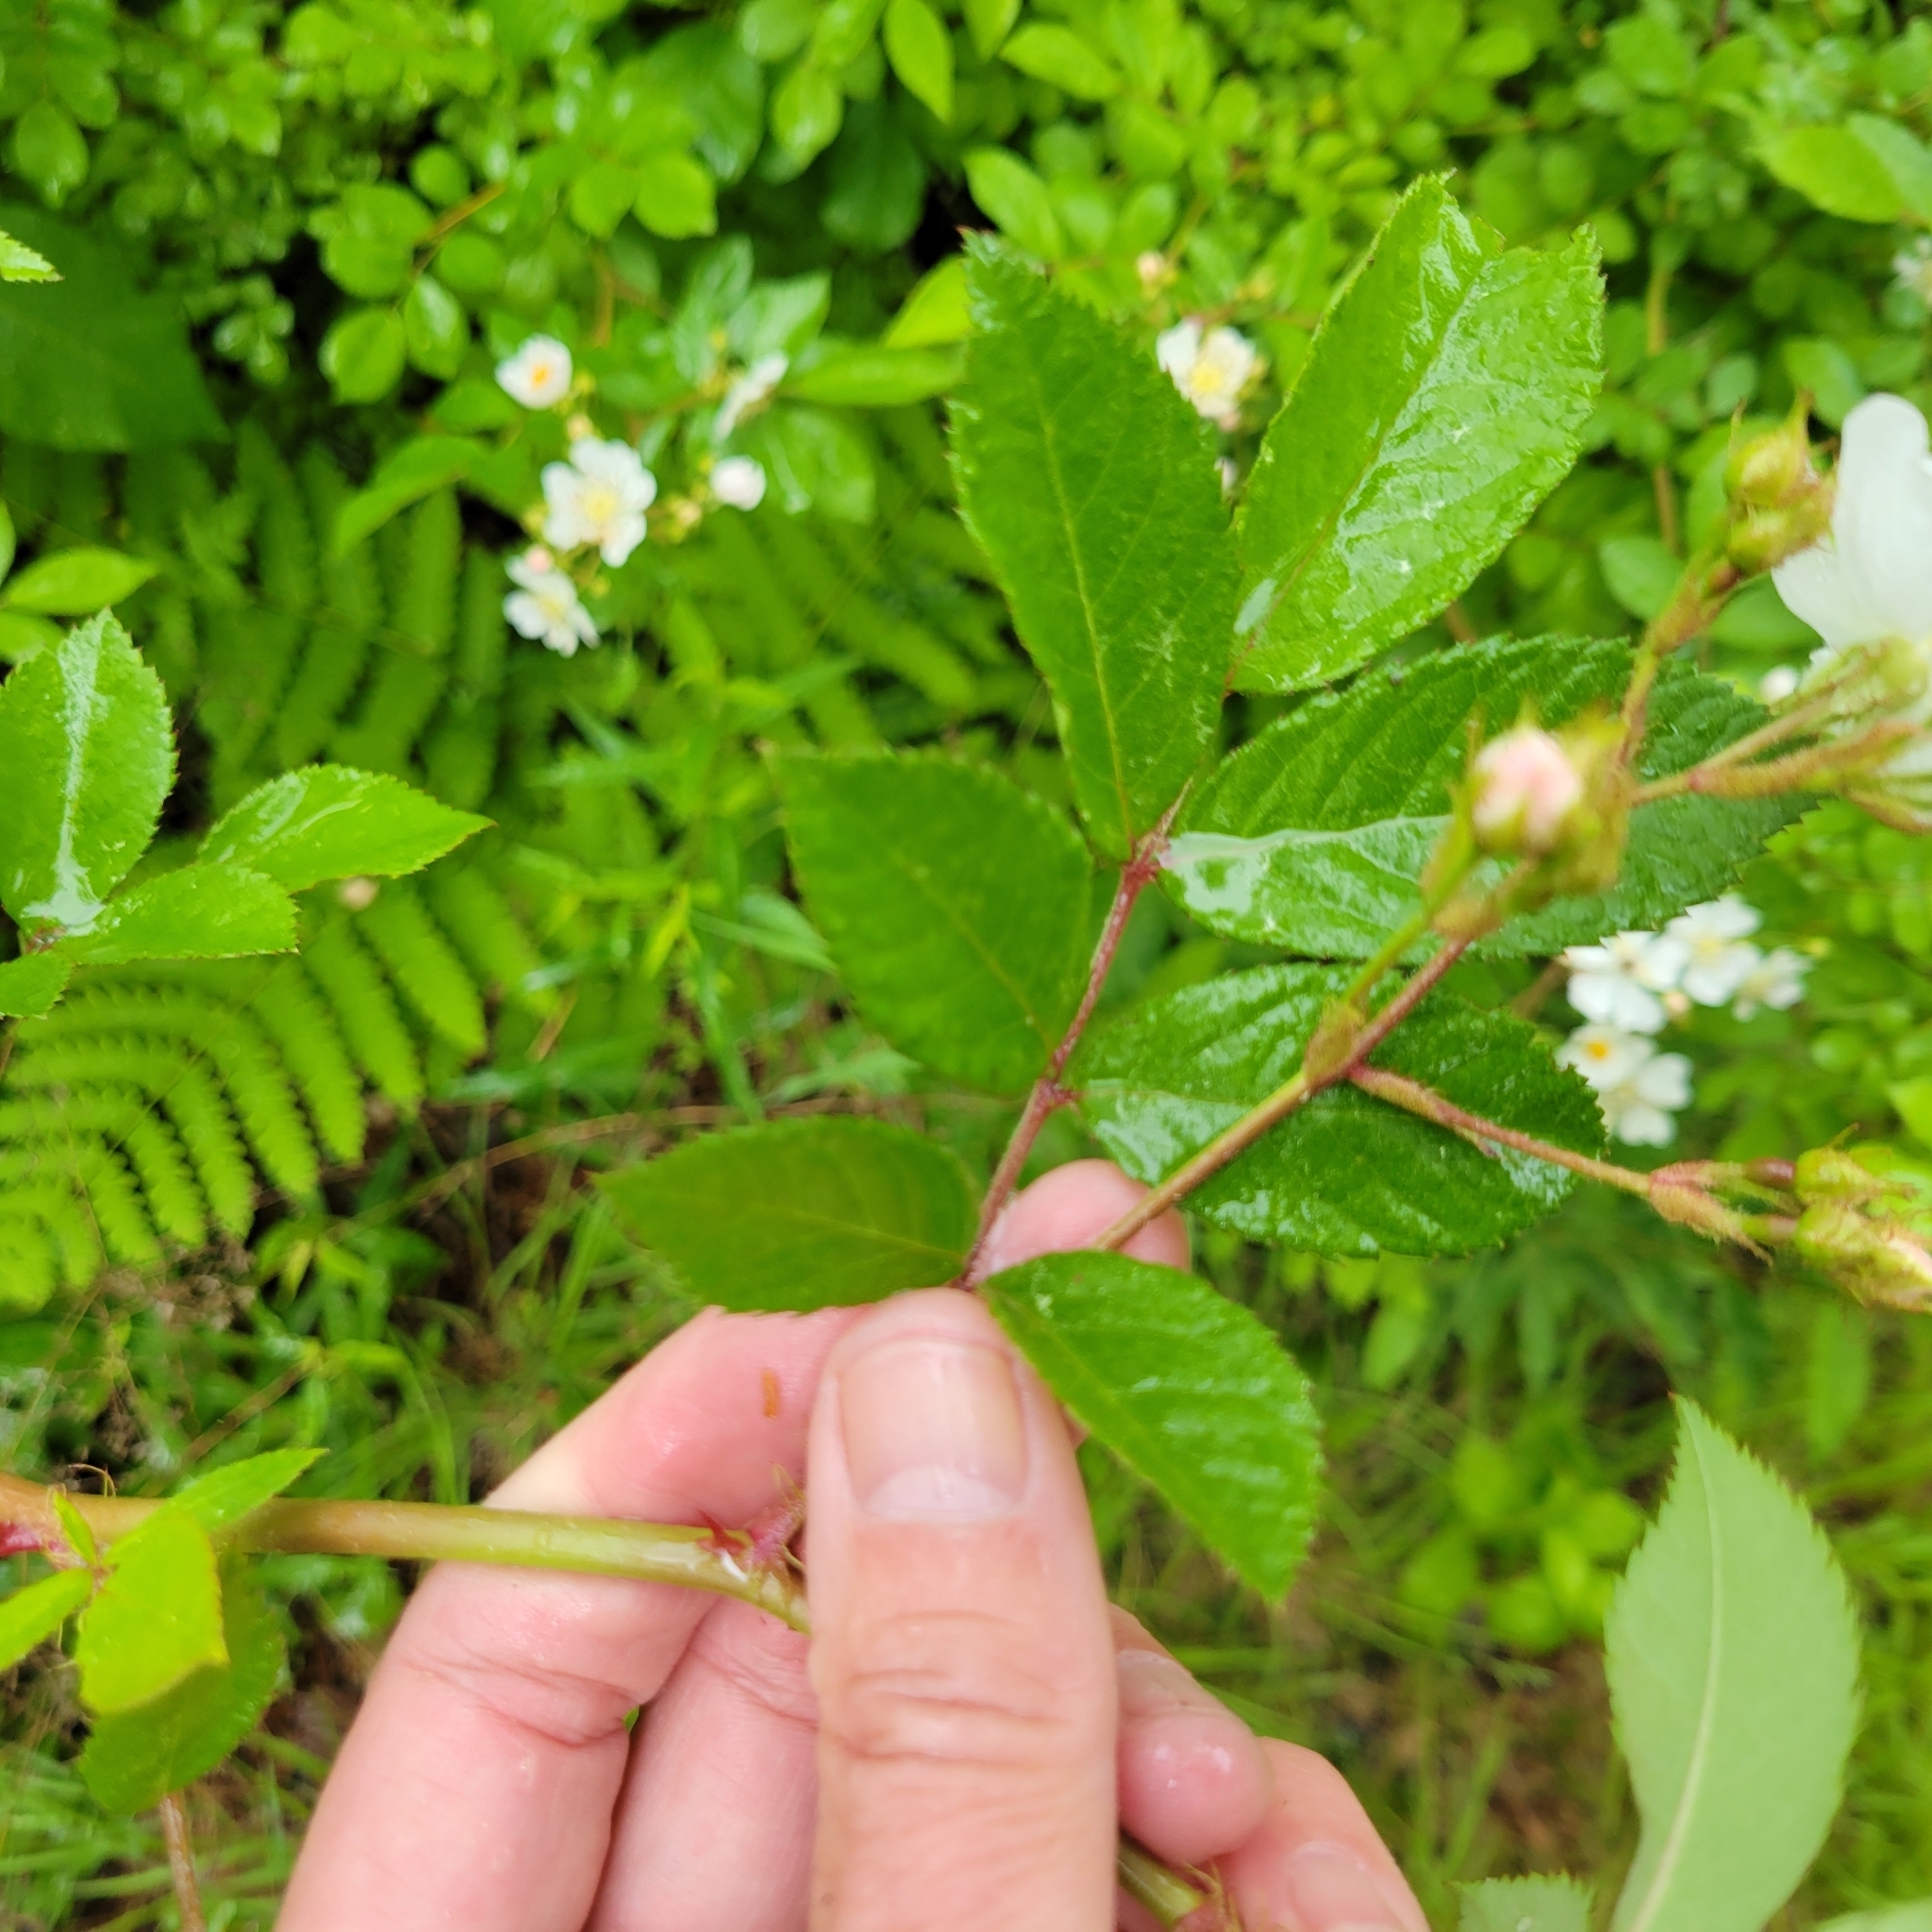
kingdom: Plantae
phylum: Tracheophyta
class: Magnoliopsida
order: Rosales
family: Rosaceae
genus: Rosa
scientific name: Rosa multiflora
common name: Multiflora rose
